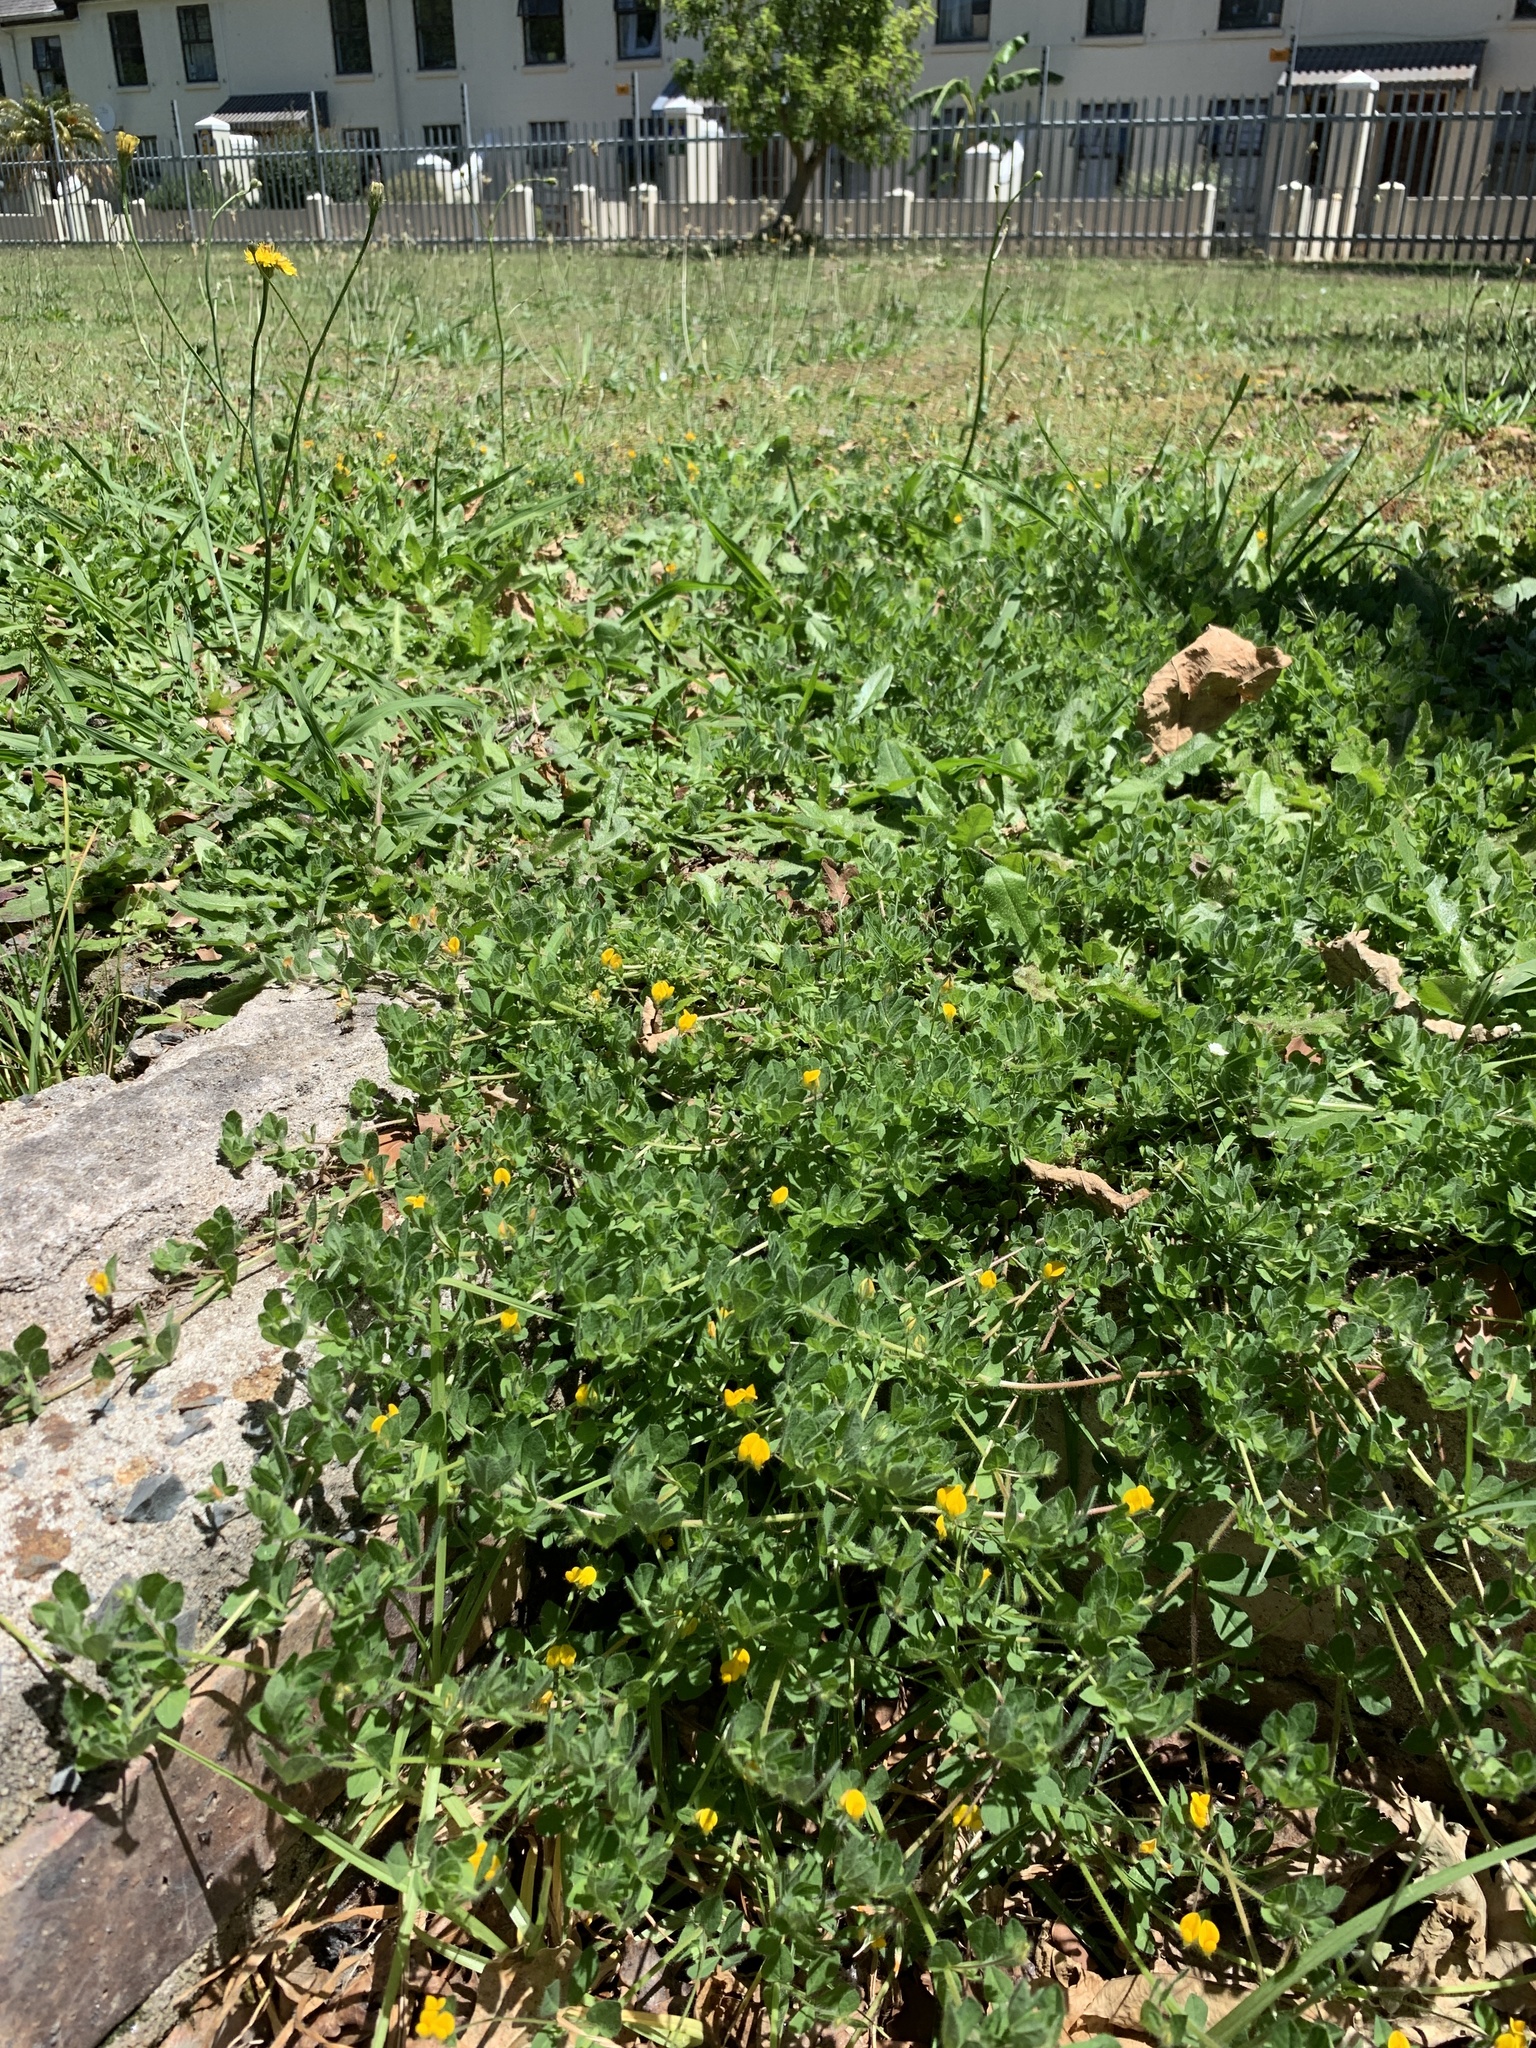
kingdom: Plantae
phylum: Tracheophyta
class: Magnoliopsida
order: Fabales
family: Fabaceae
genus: Lotus
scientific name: Lotus subbiflorus
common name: Hairy bird's-foot trefoil
